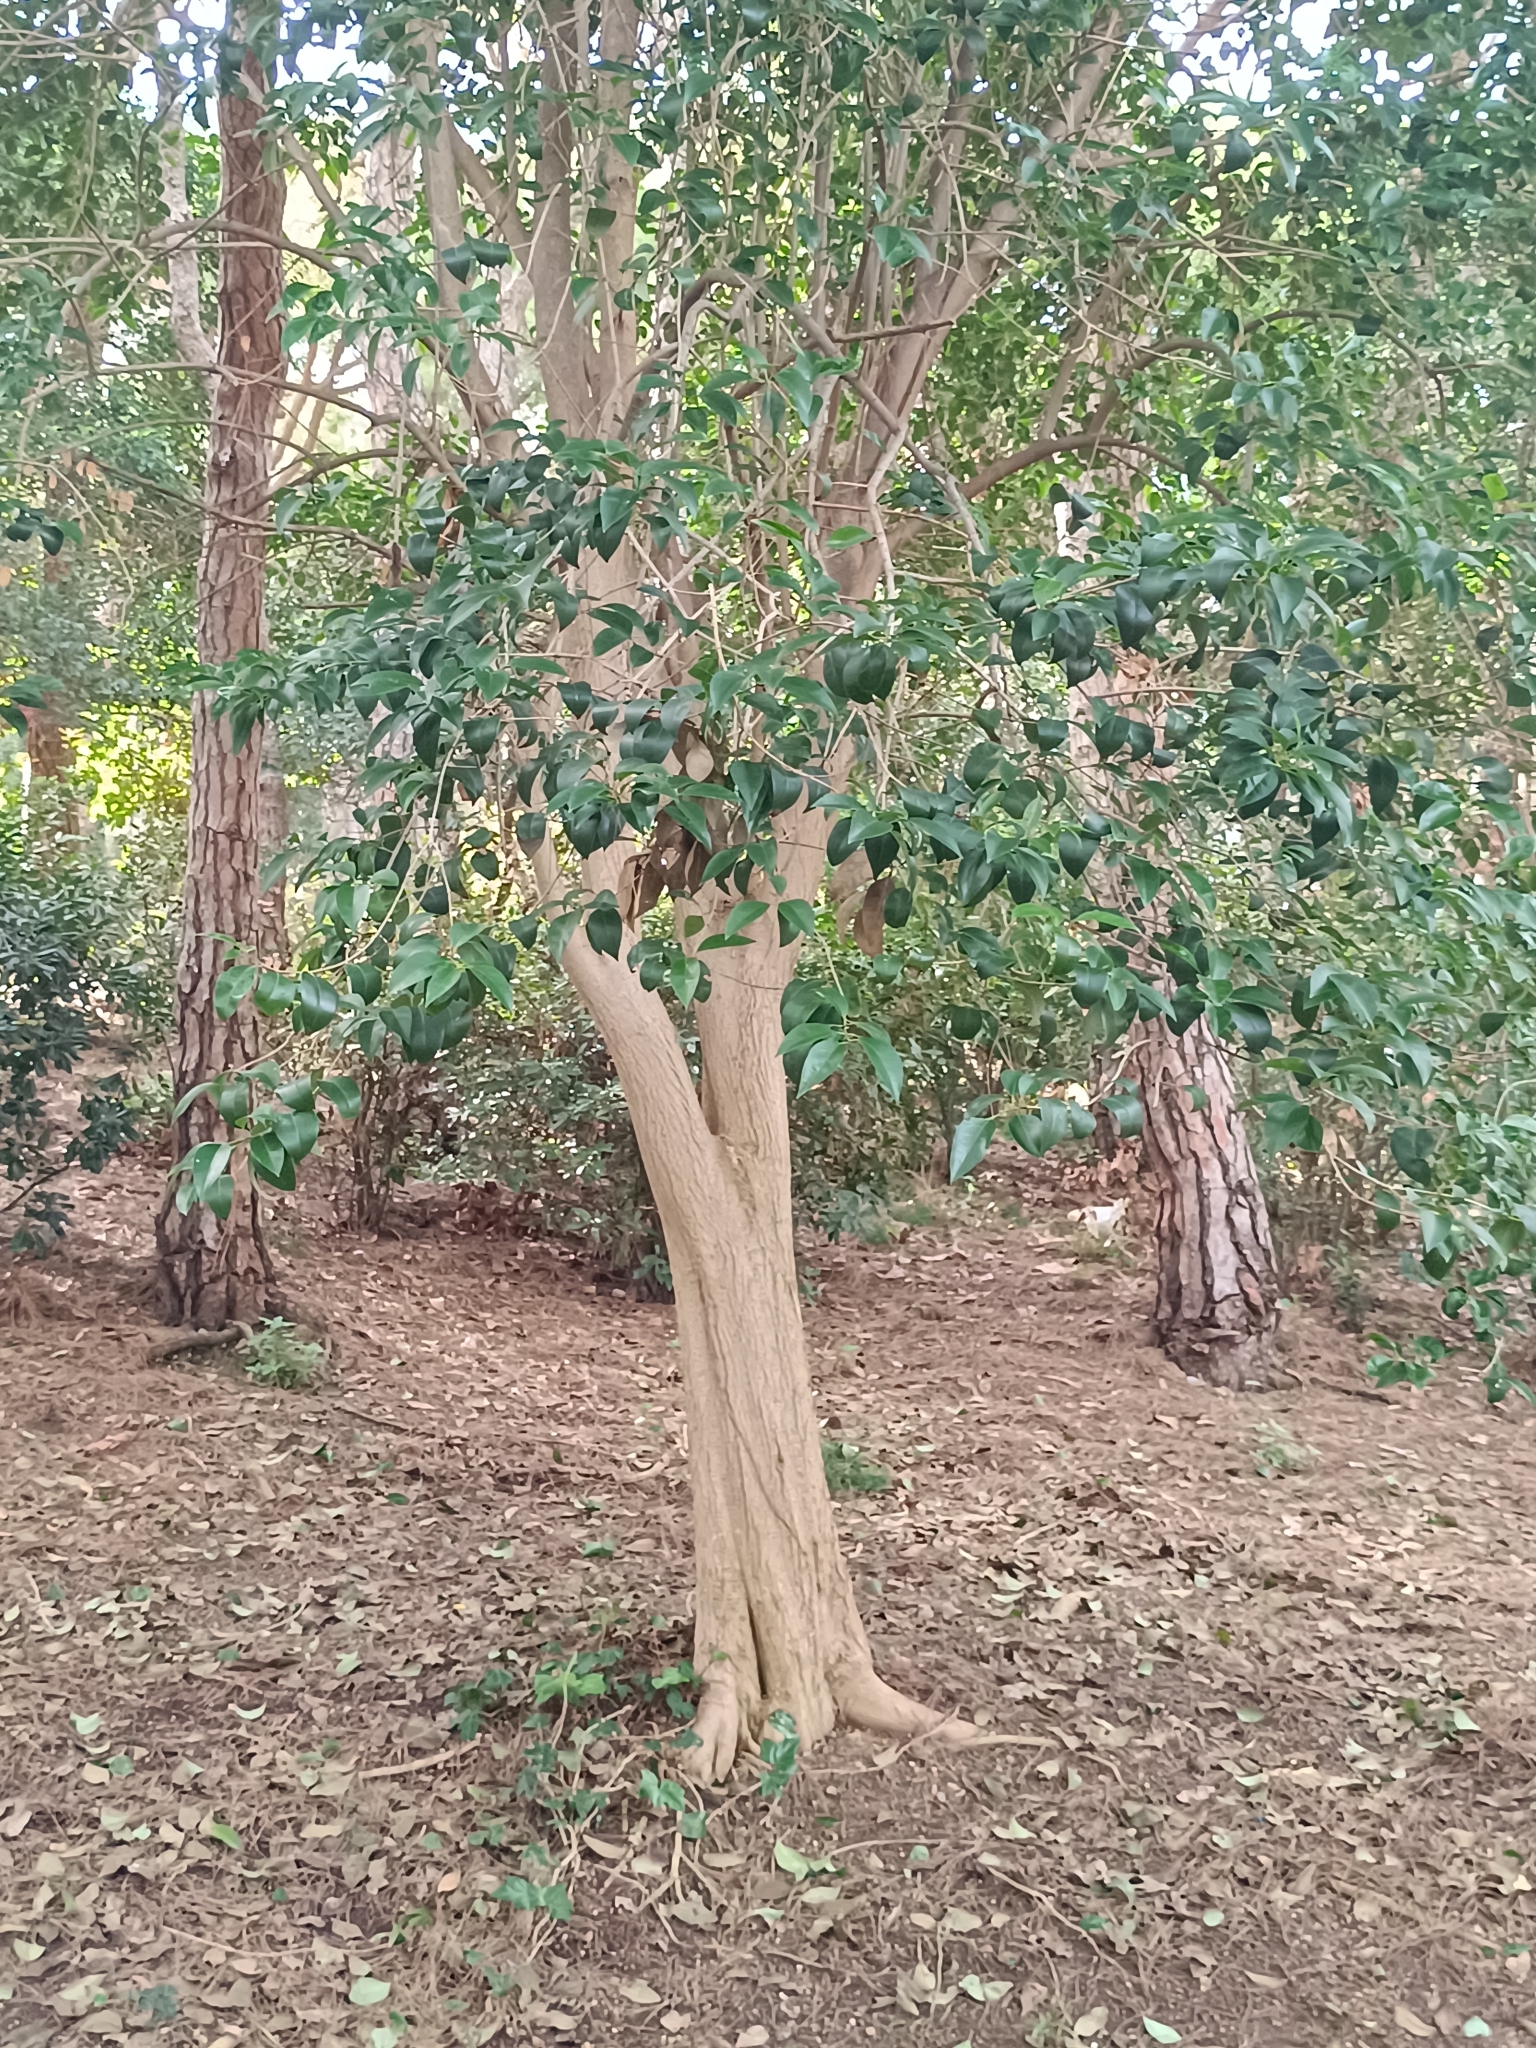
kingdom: Plantae
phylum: Tracheophyta
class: Liliopsida
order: Asparagales
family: Asparagaceae
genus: Ruscus
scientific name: Ruscus aculeatus
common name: Butcher's-broom
